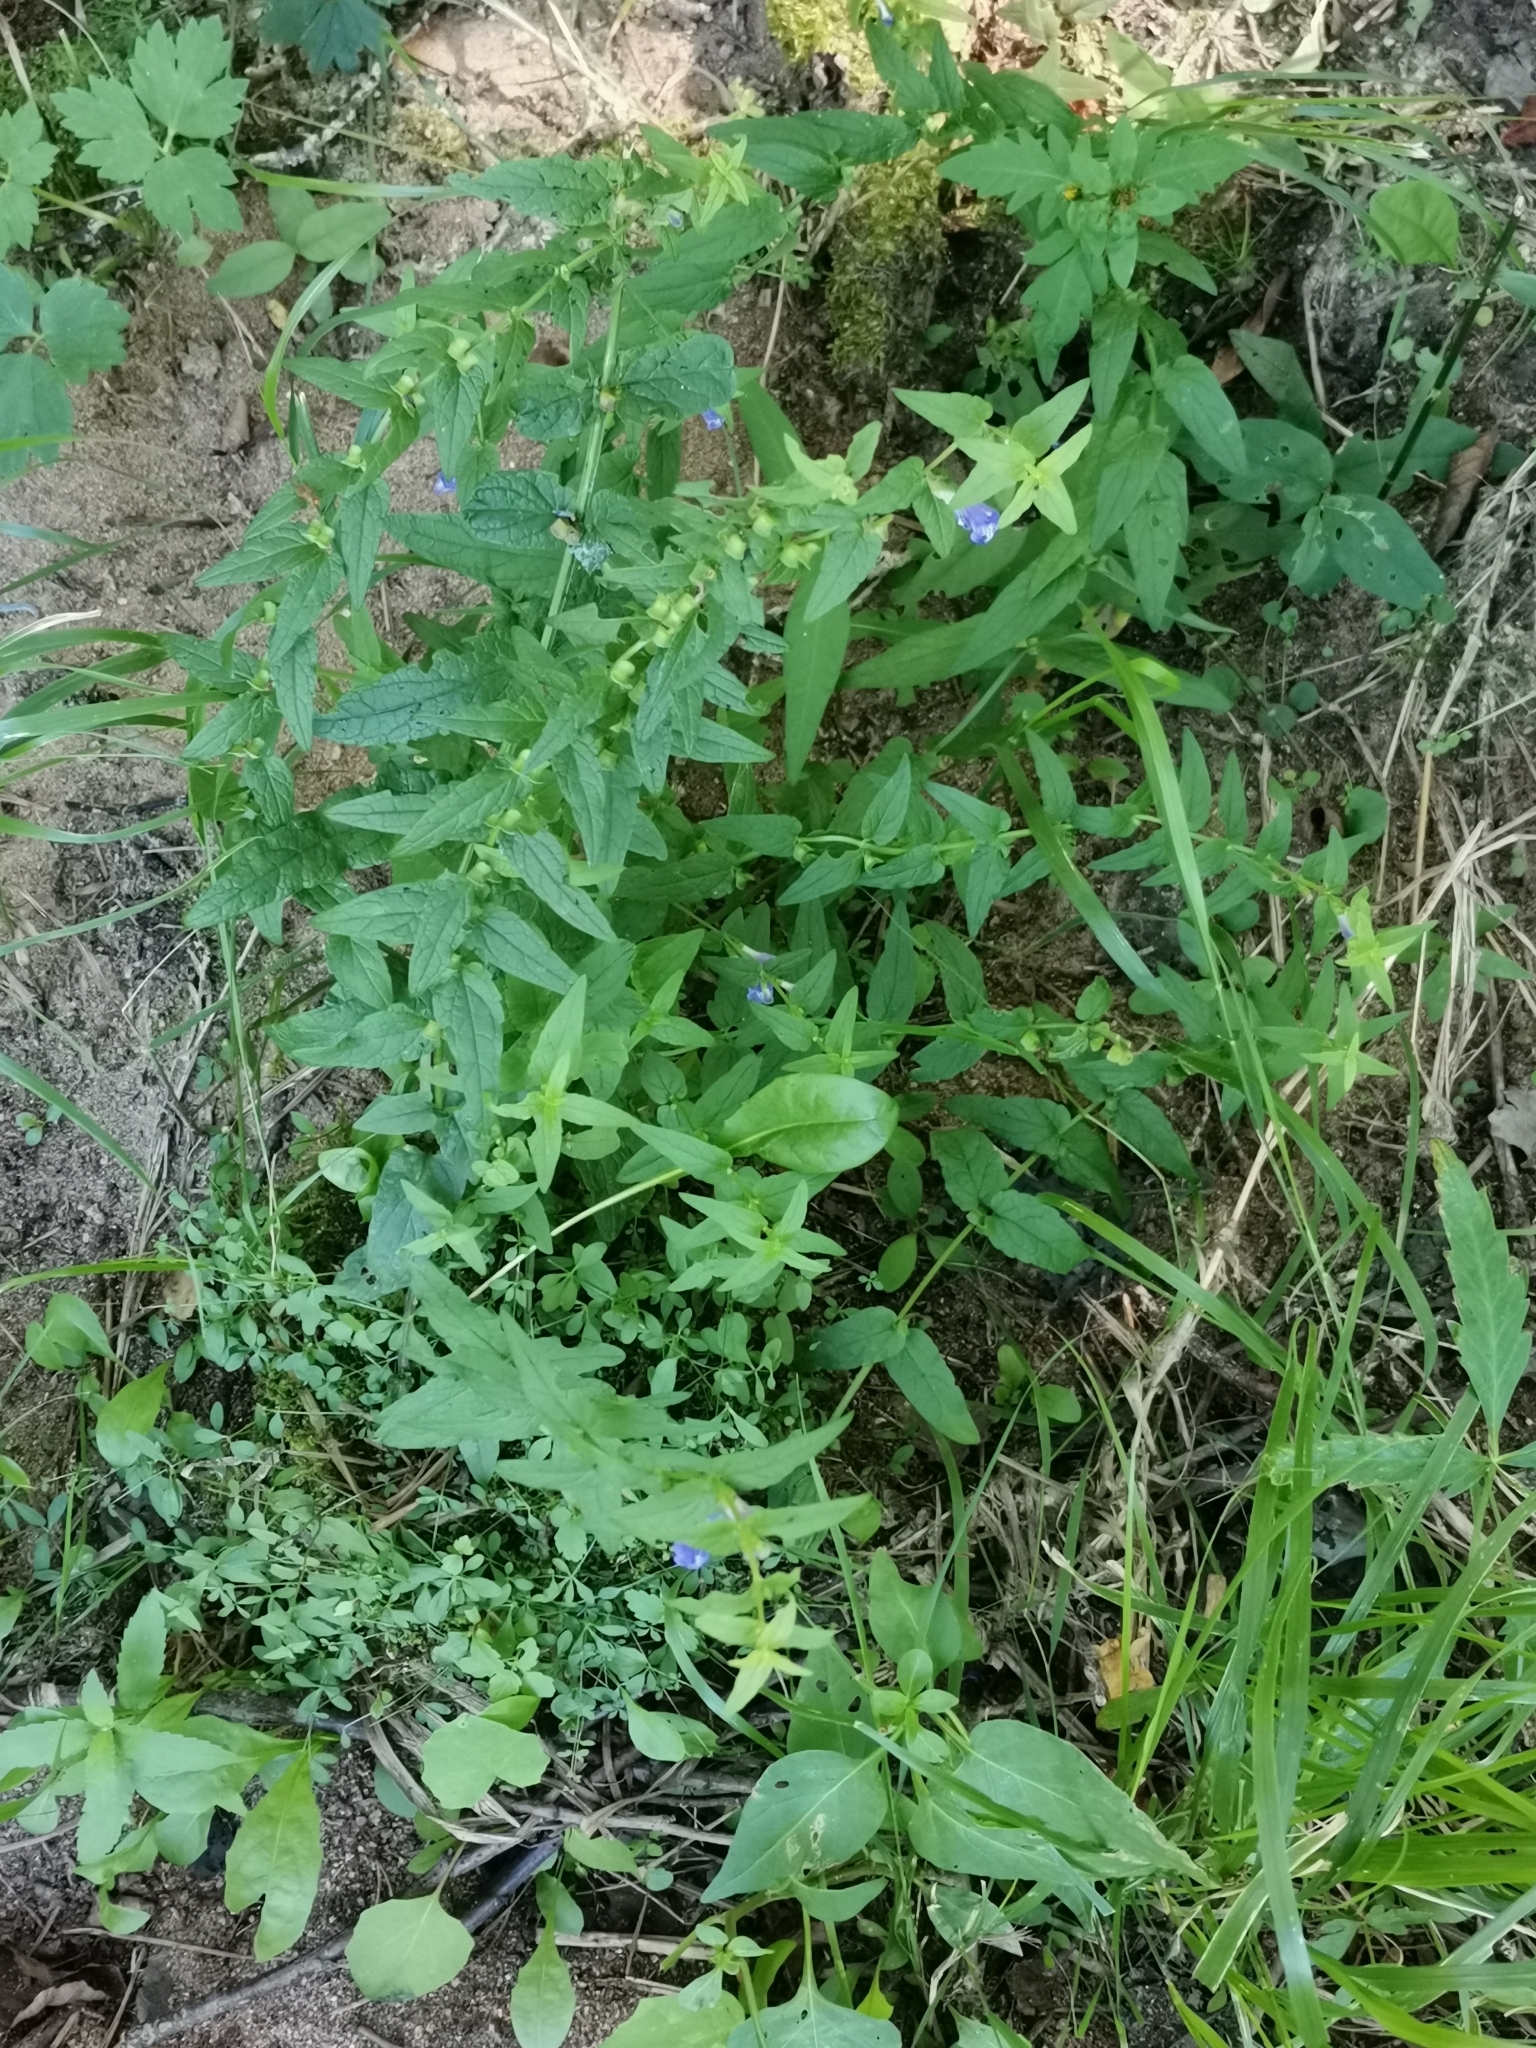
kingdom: Plantae
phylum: Tracheophyta
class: Magnoliopsida
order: Lamiales
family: Lamiaceae
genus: Scutellaria
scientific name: Scutellaria galericulata
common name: Skullcap
